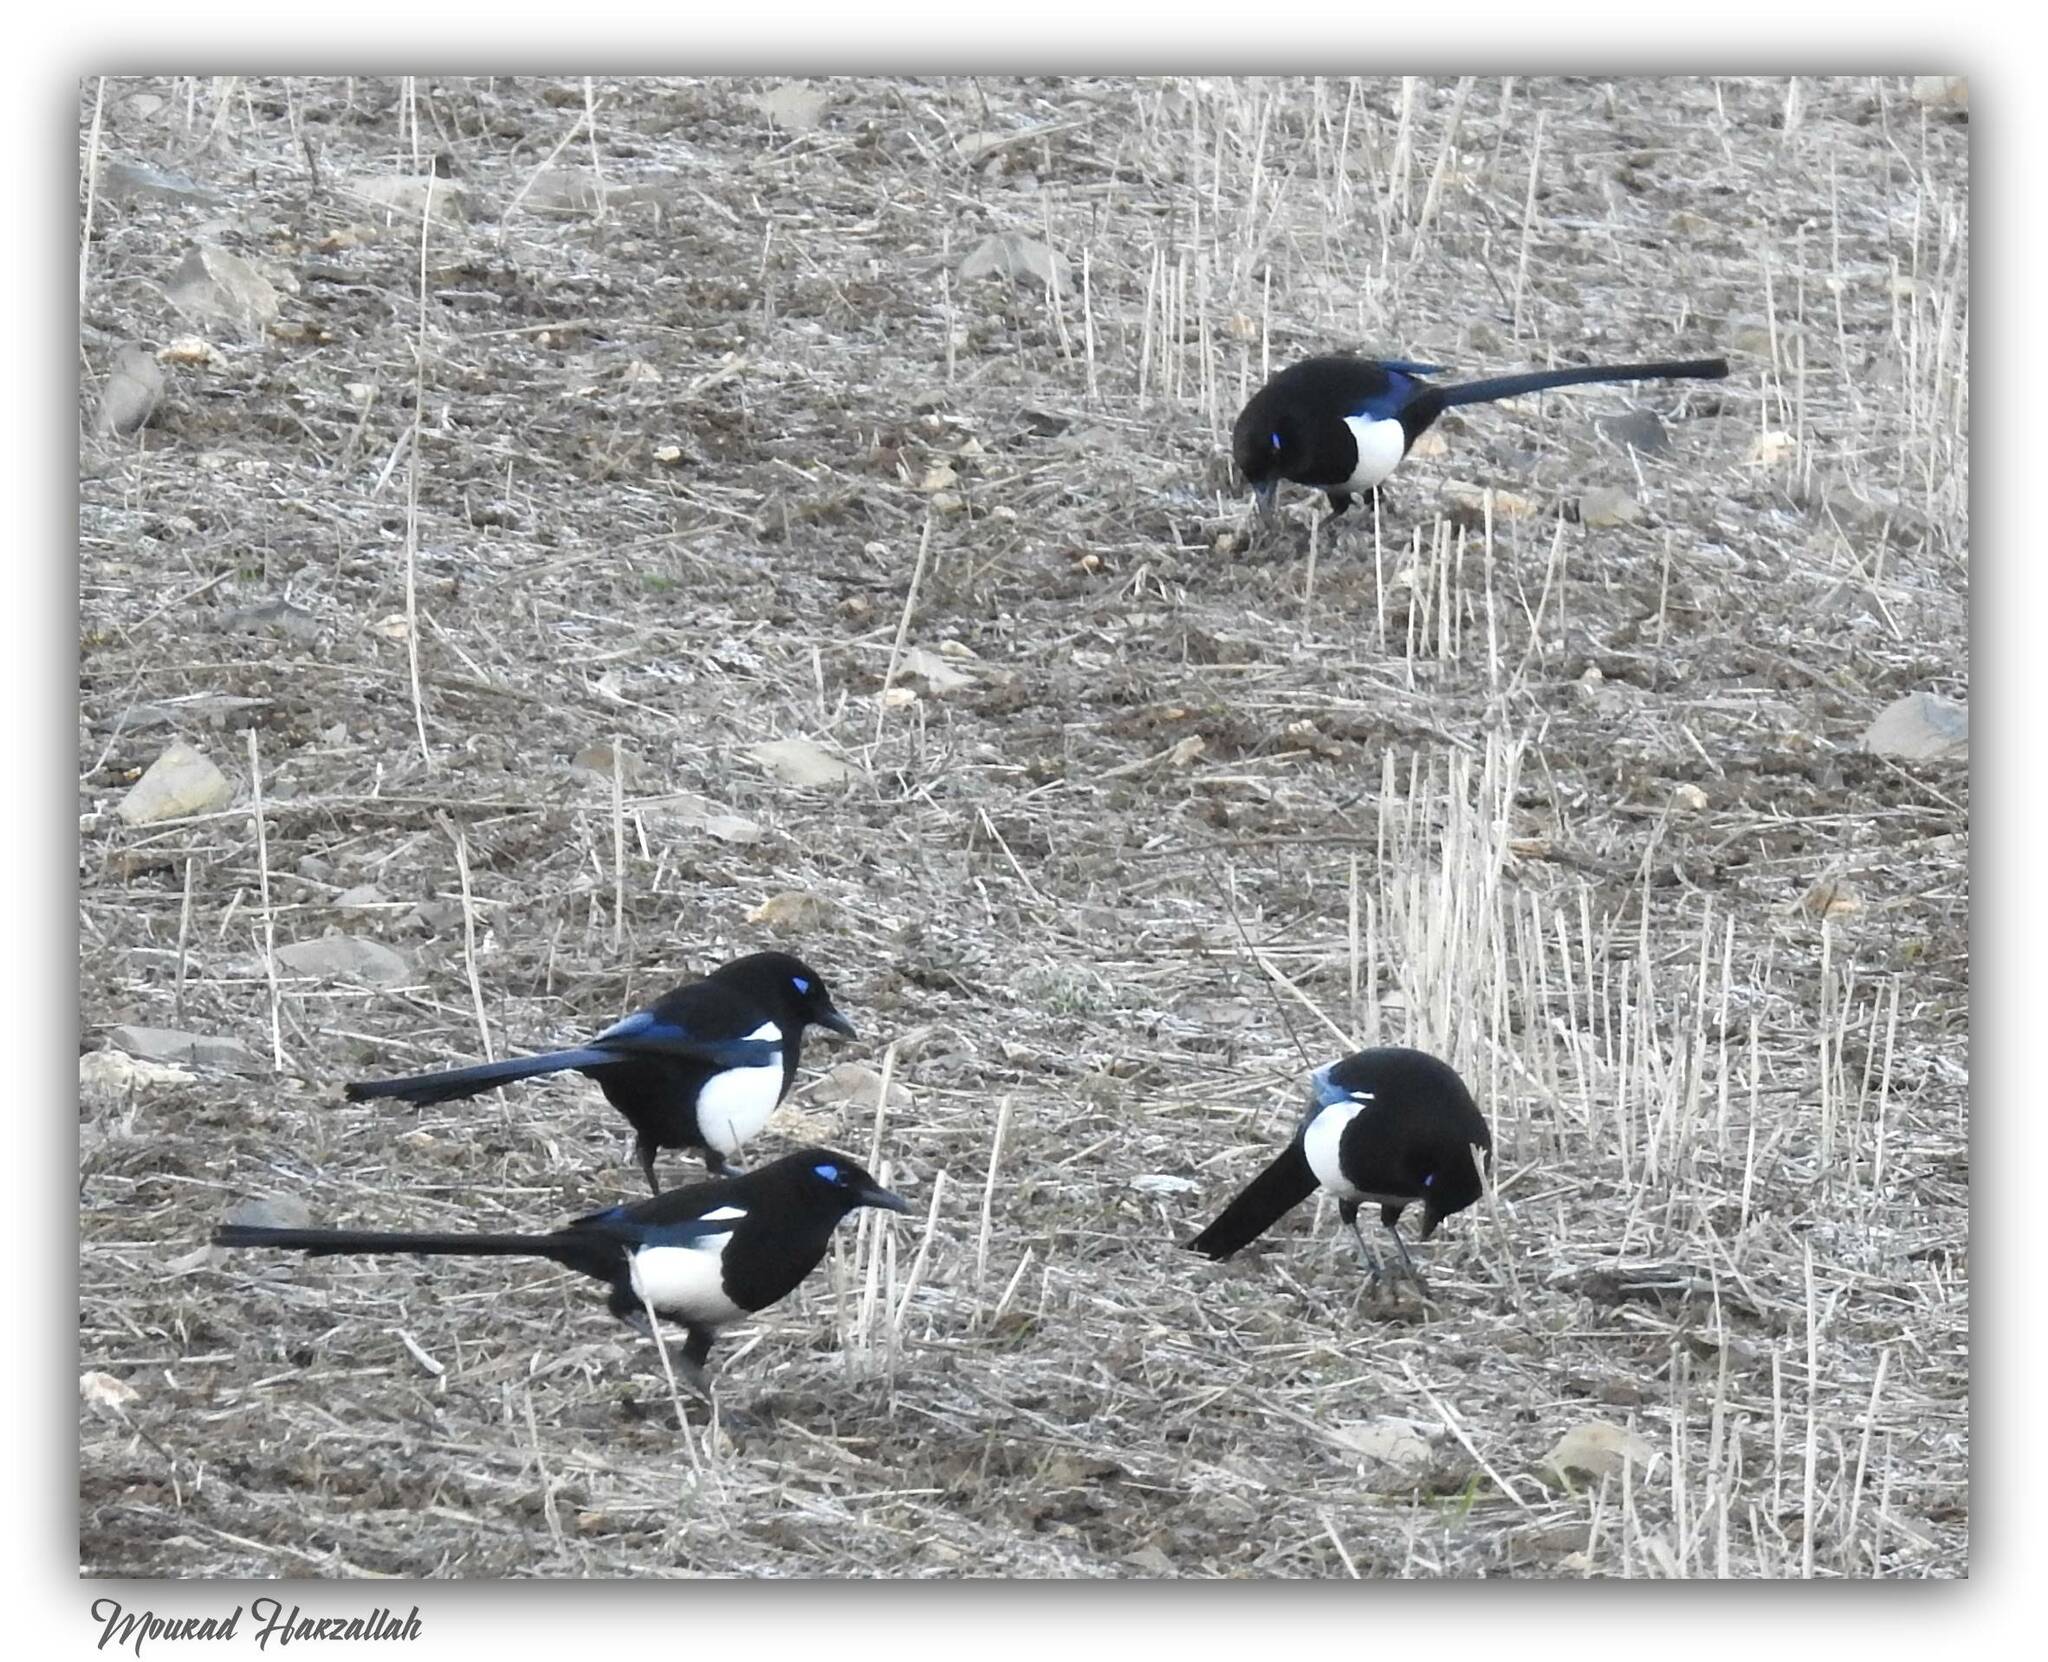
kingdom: Animalia
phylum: Chordata
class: Aves
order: Passeriformes
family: Corvidae
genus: Pica
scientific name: Pica mauritanica
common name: Maghreb magpie
